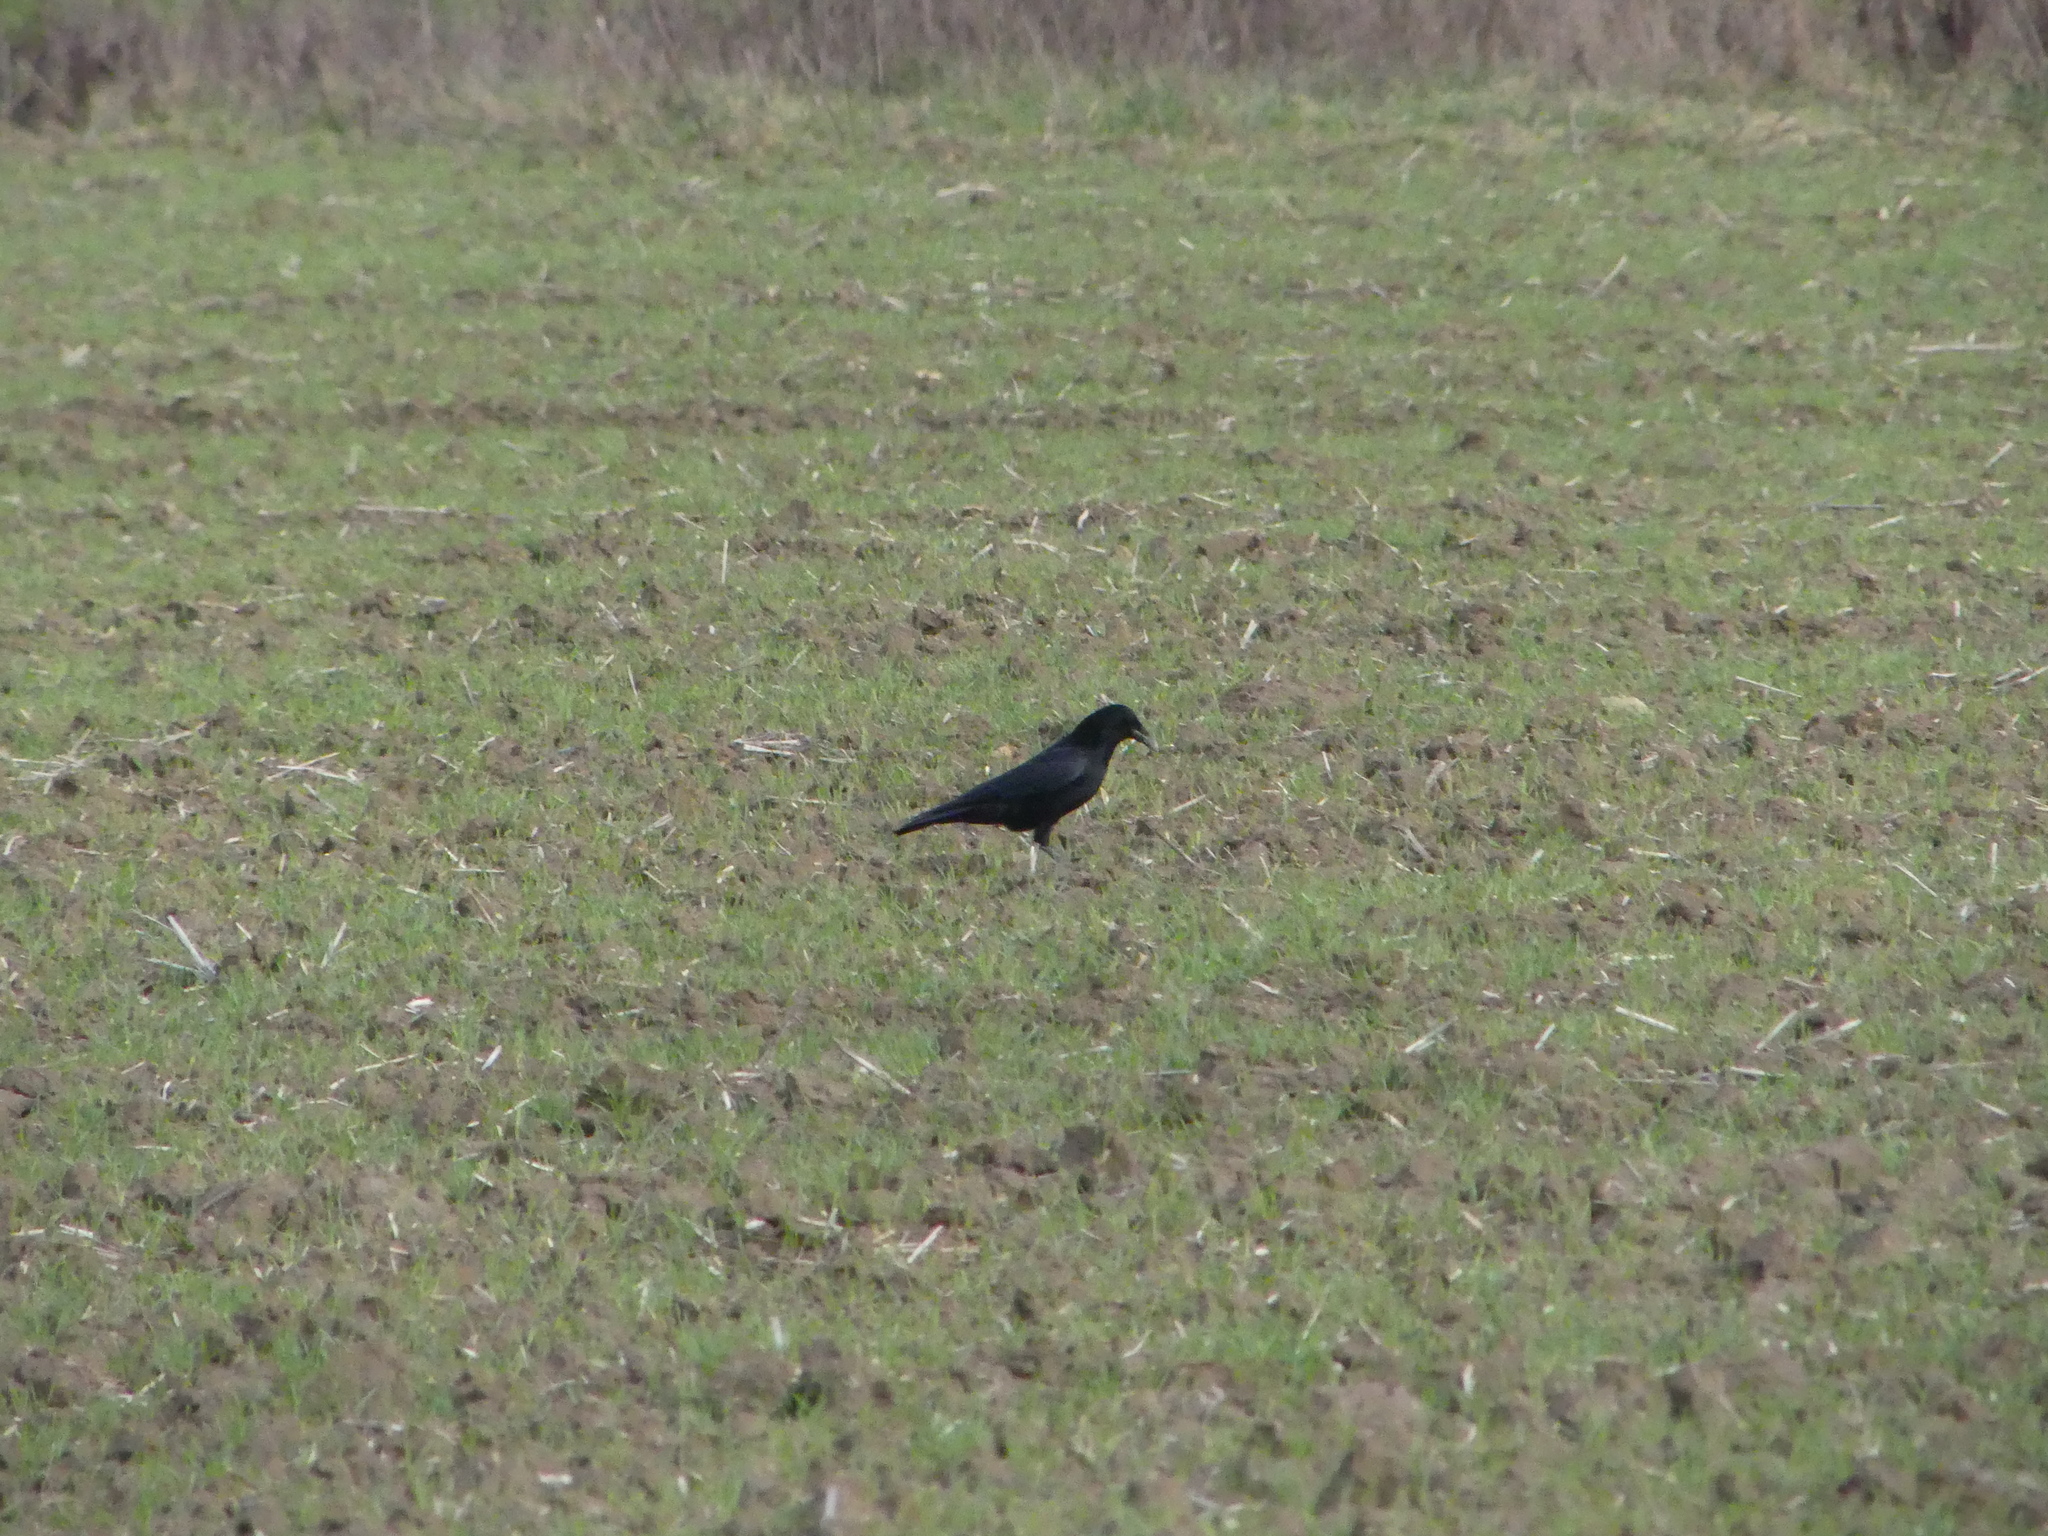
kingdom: Animalia
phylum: Chordata
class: Aves
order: Passeriformes
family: Corvidae
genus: Corvus
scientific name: Corvus corone
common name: Carrion crow
